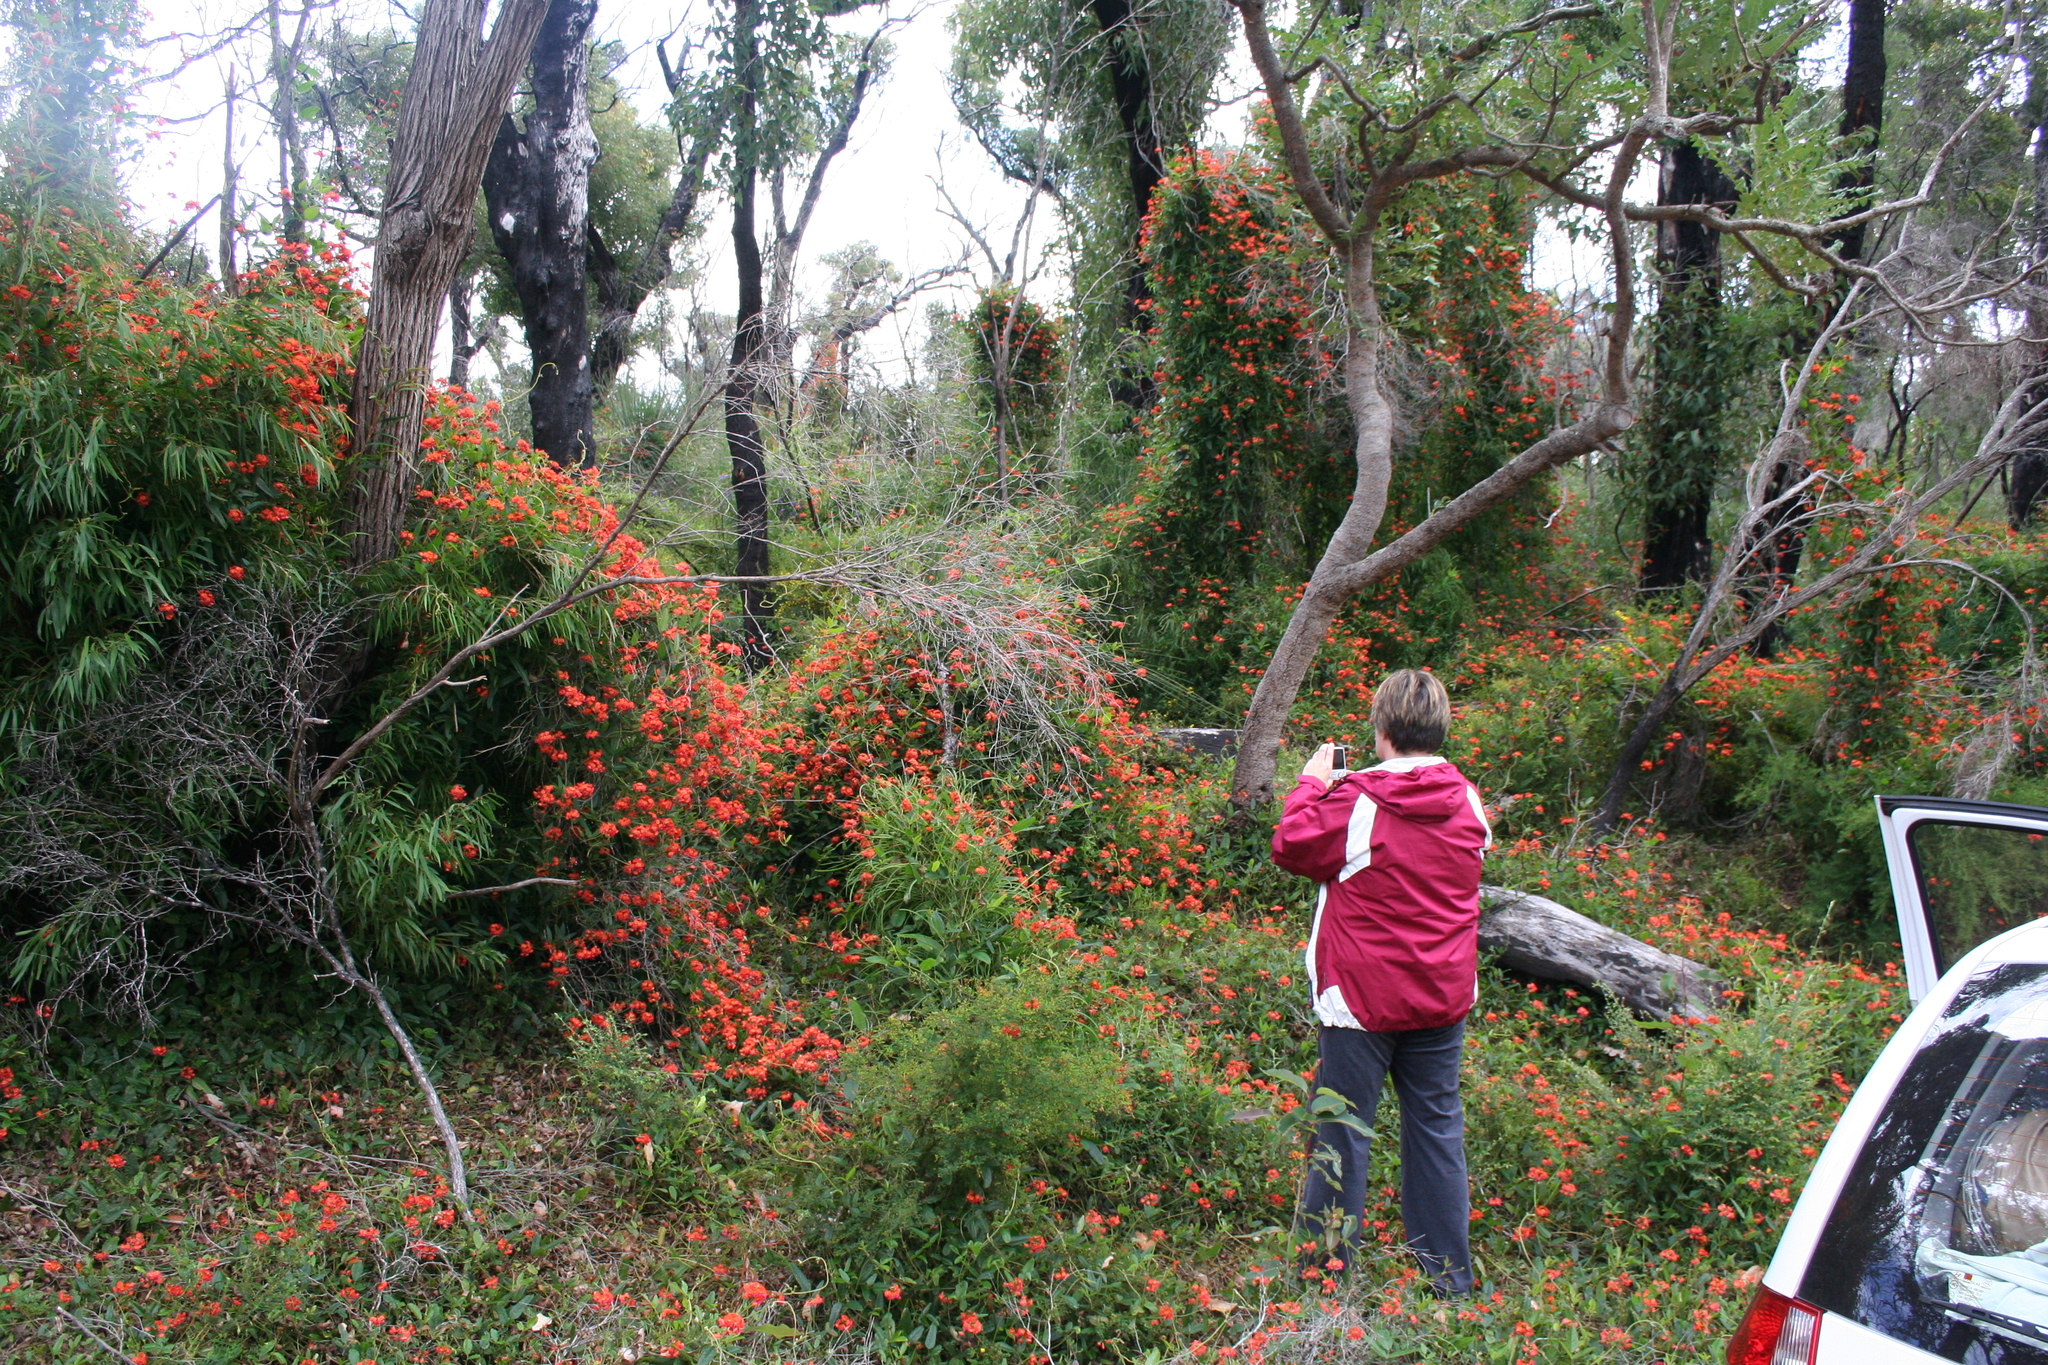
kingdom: Plantae
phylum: Tracheophyta
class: Magnoliopsida
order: Fabales
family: Fabaceae
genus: Kennedia
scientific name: Kennedia coccinea
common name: Coralvine
